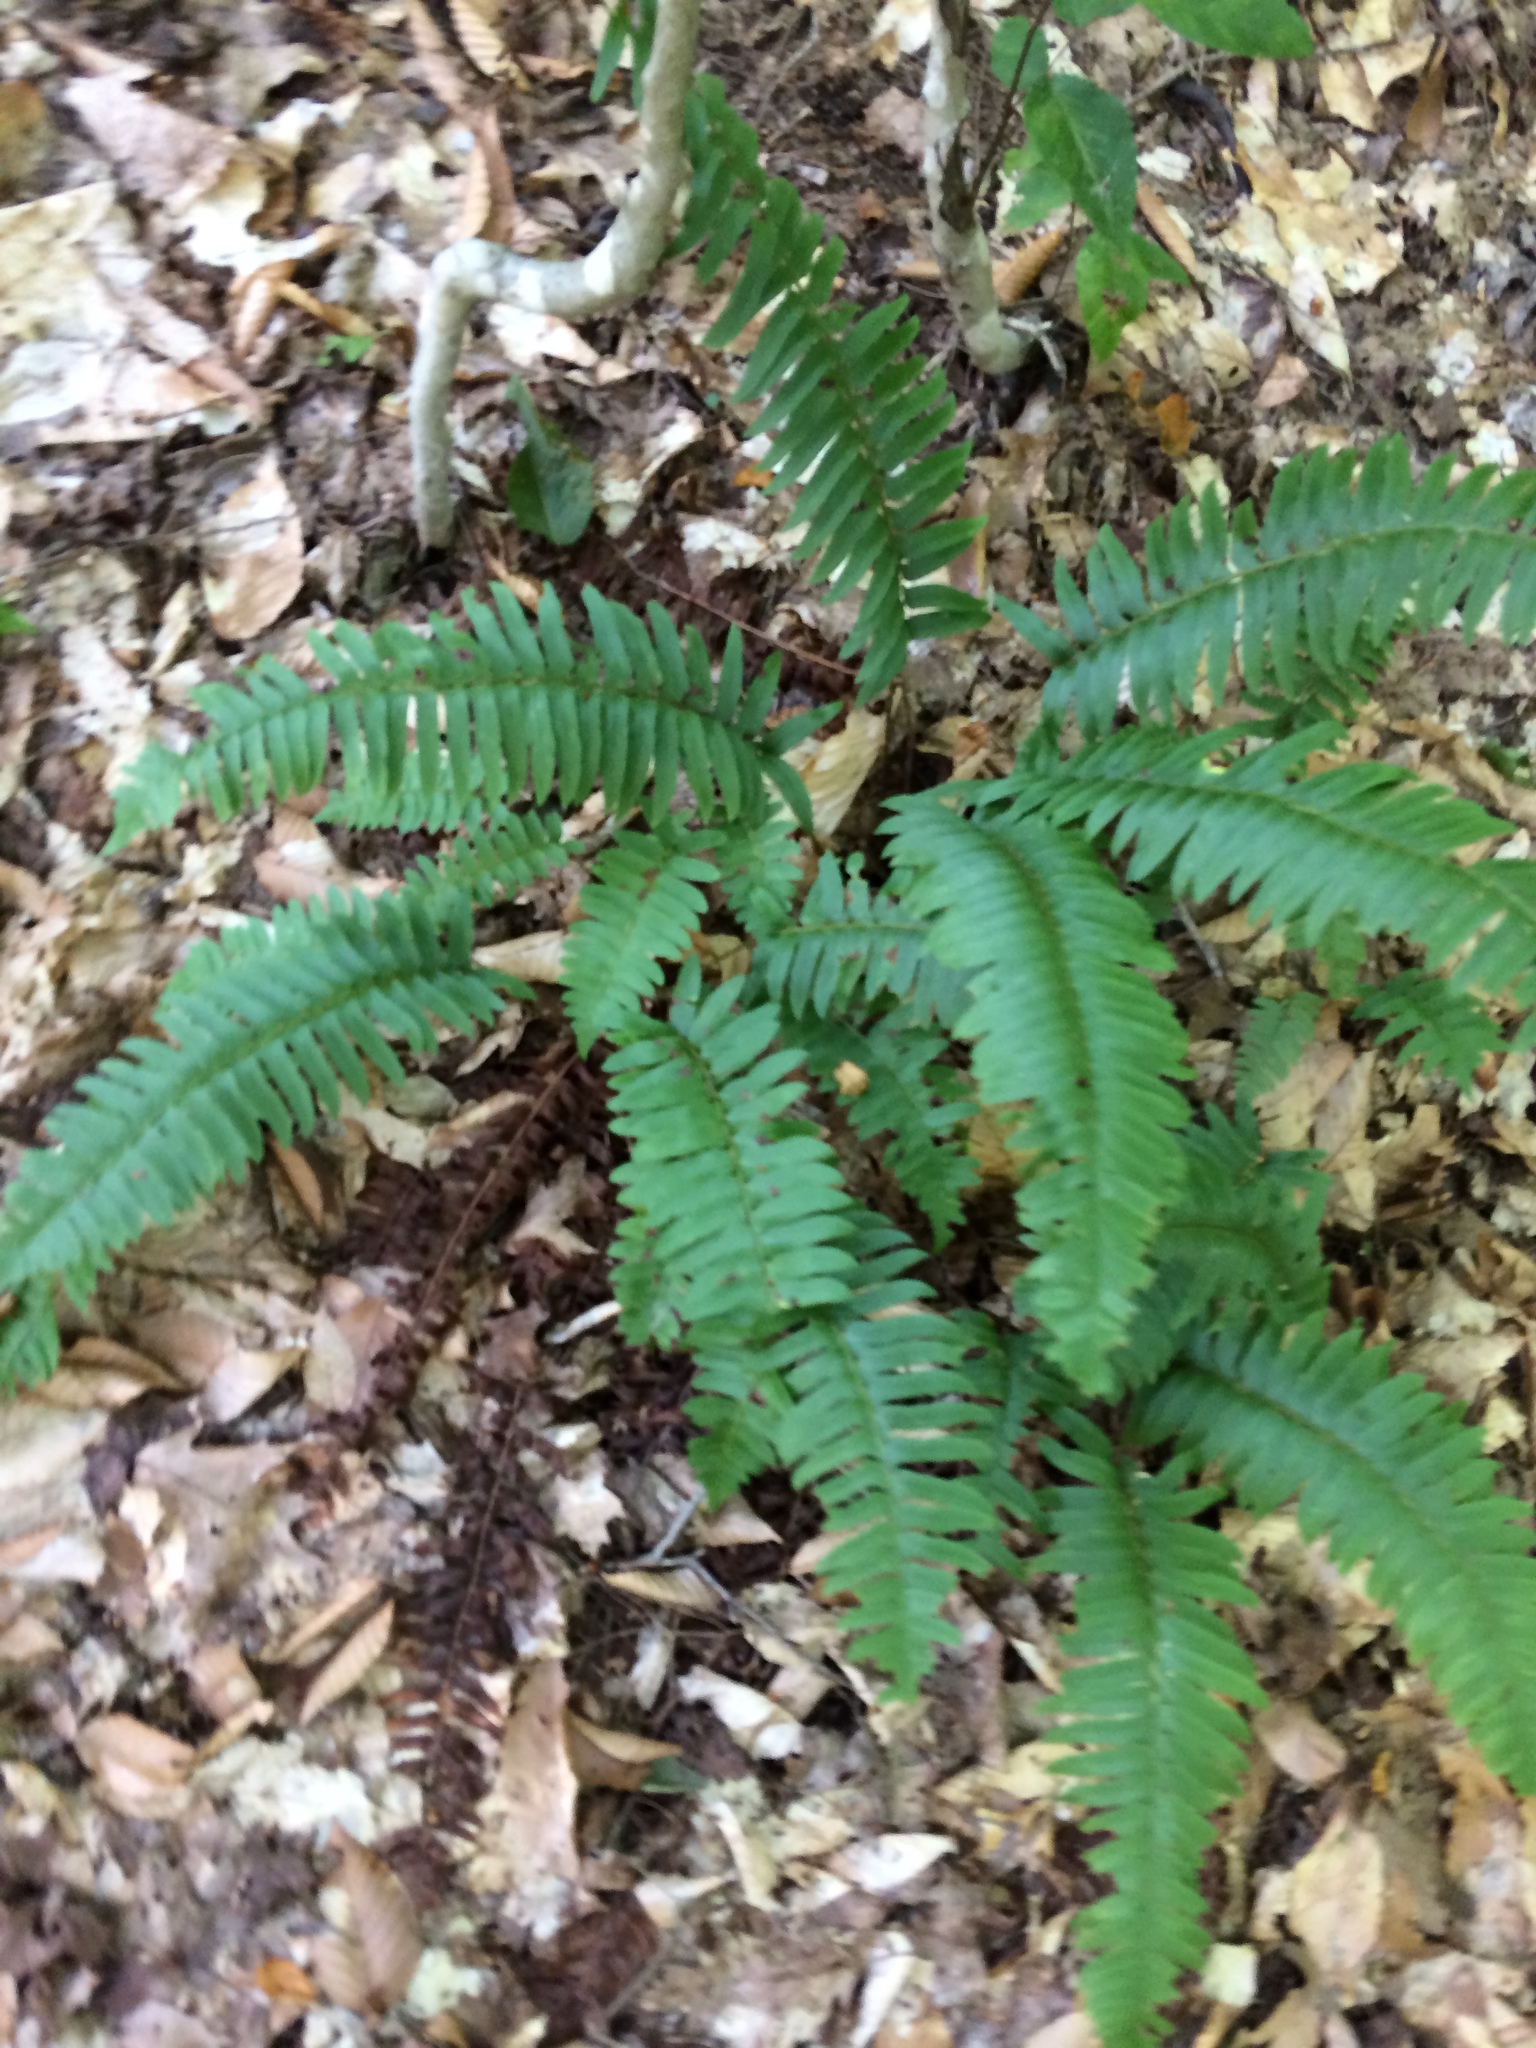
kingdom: Plantae
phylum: Tracheophyta
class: Polypodiopsida
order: Polypodiales
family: Dryopteridaceae
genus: Polystichum
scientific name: Polystichum acrostichoides
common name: Christmas fern
